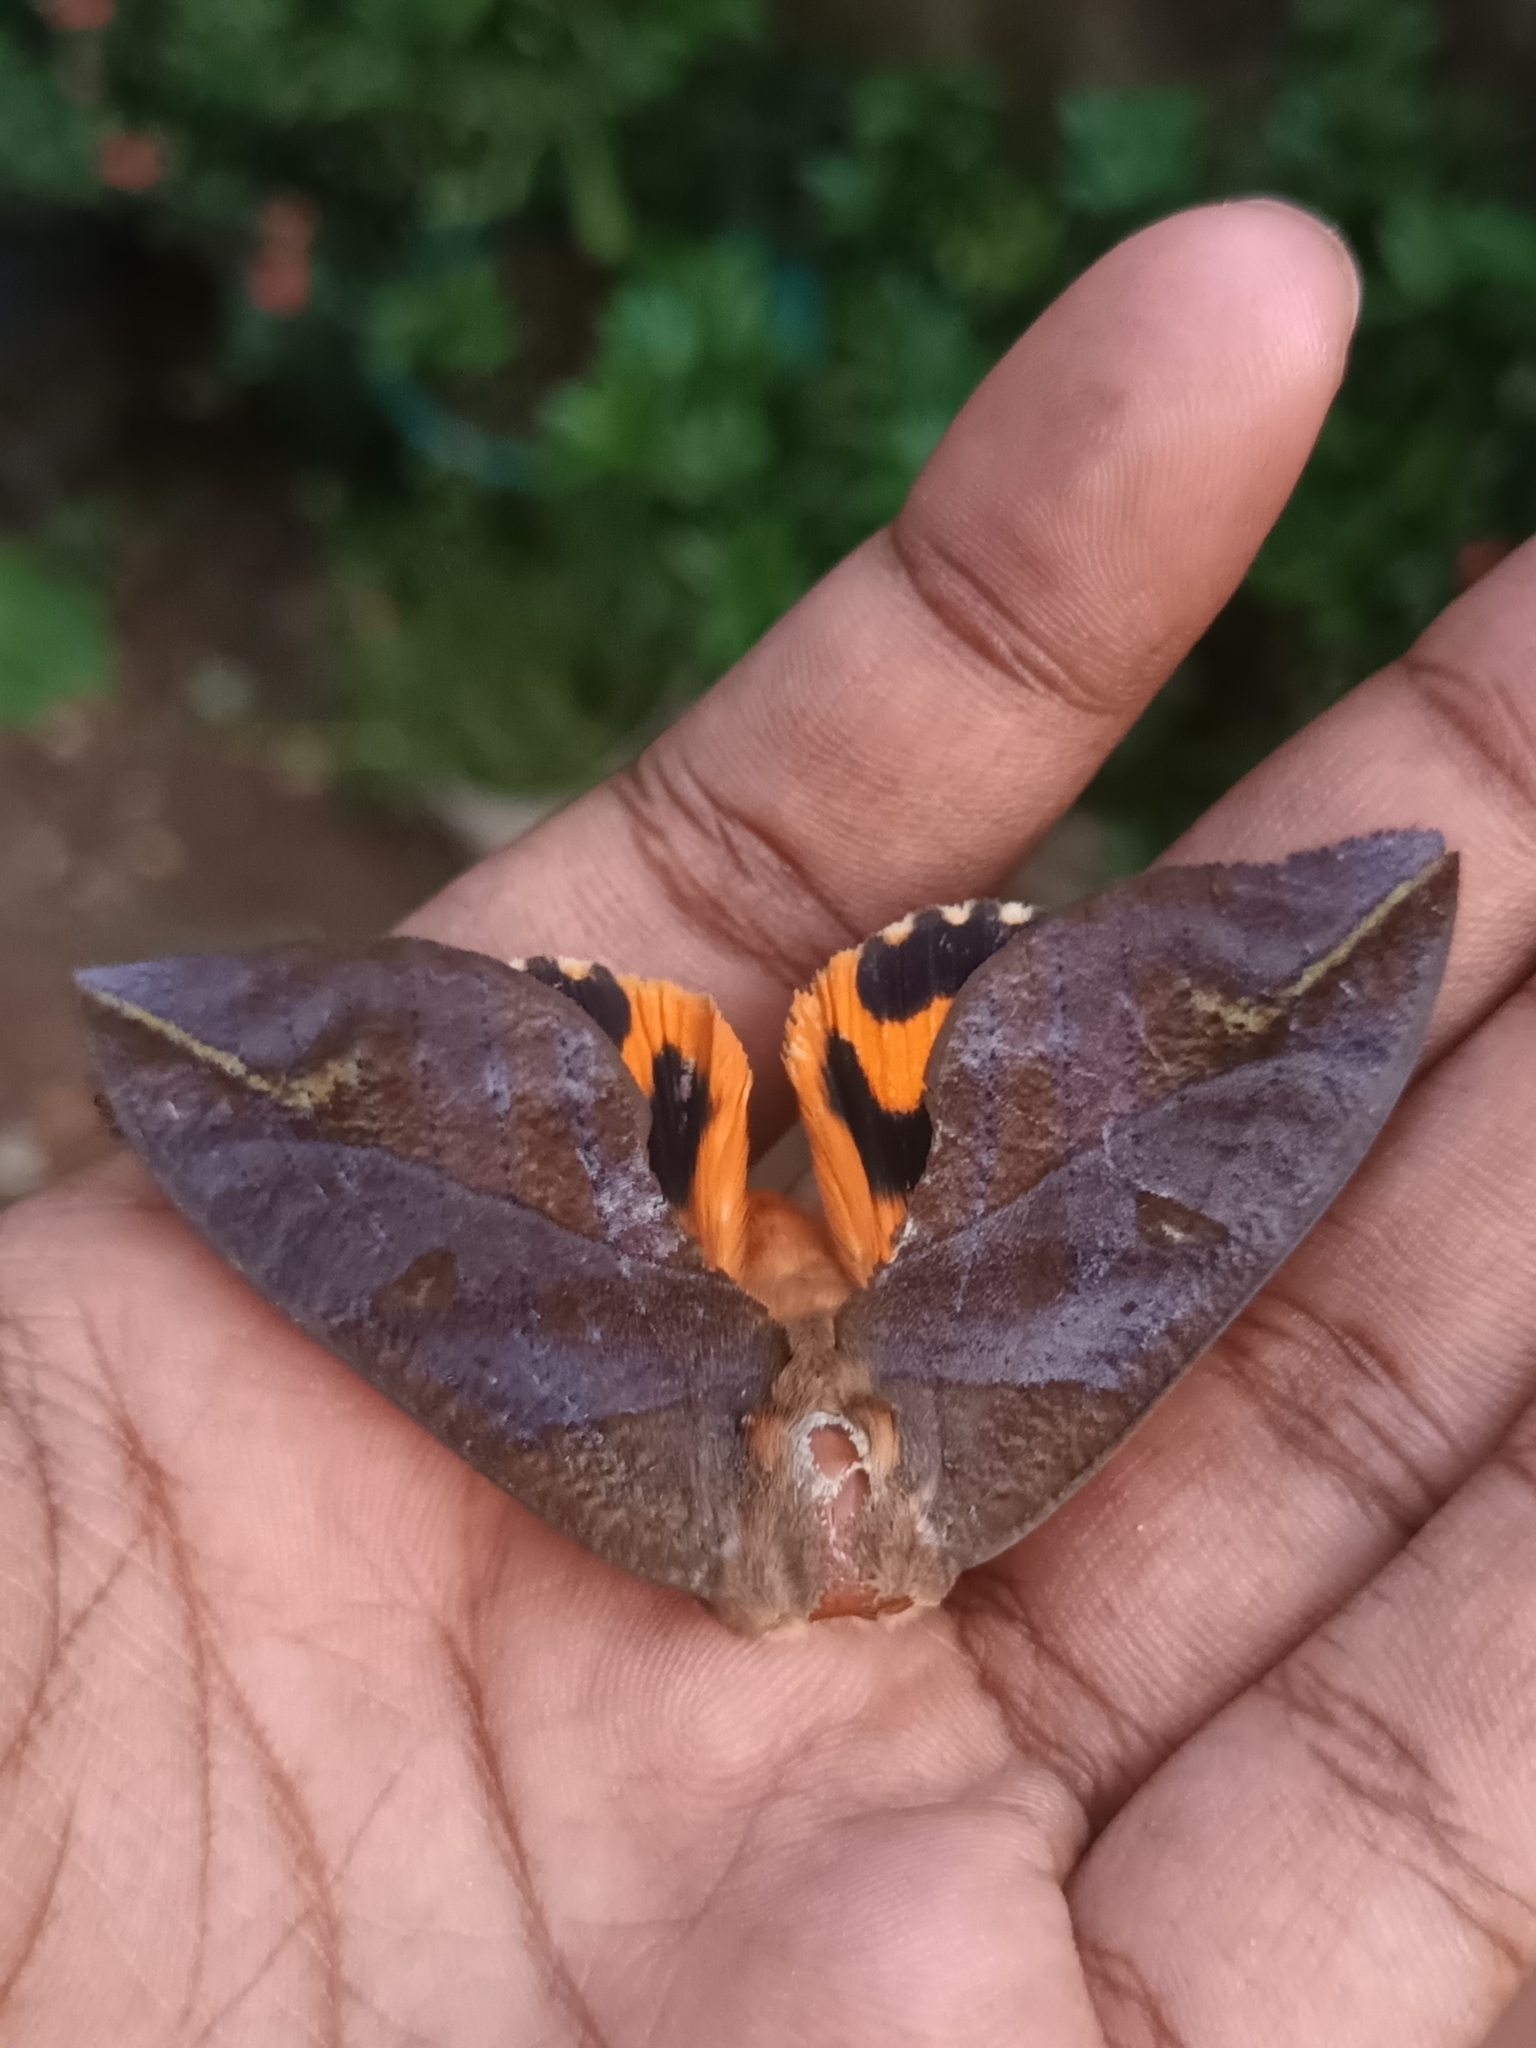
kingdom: Animalia
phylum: Arthropoda
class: Insecta
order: Lepidoptera
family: Erebidae
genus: Eudocima
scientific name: Eudocima phalonia
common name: Wasp
